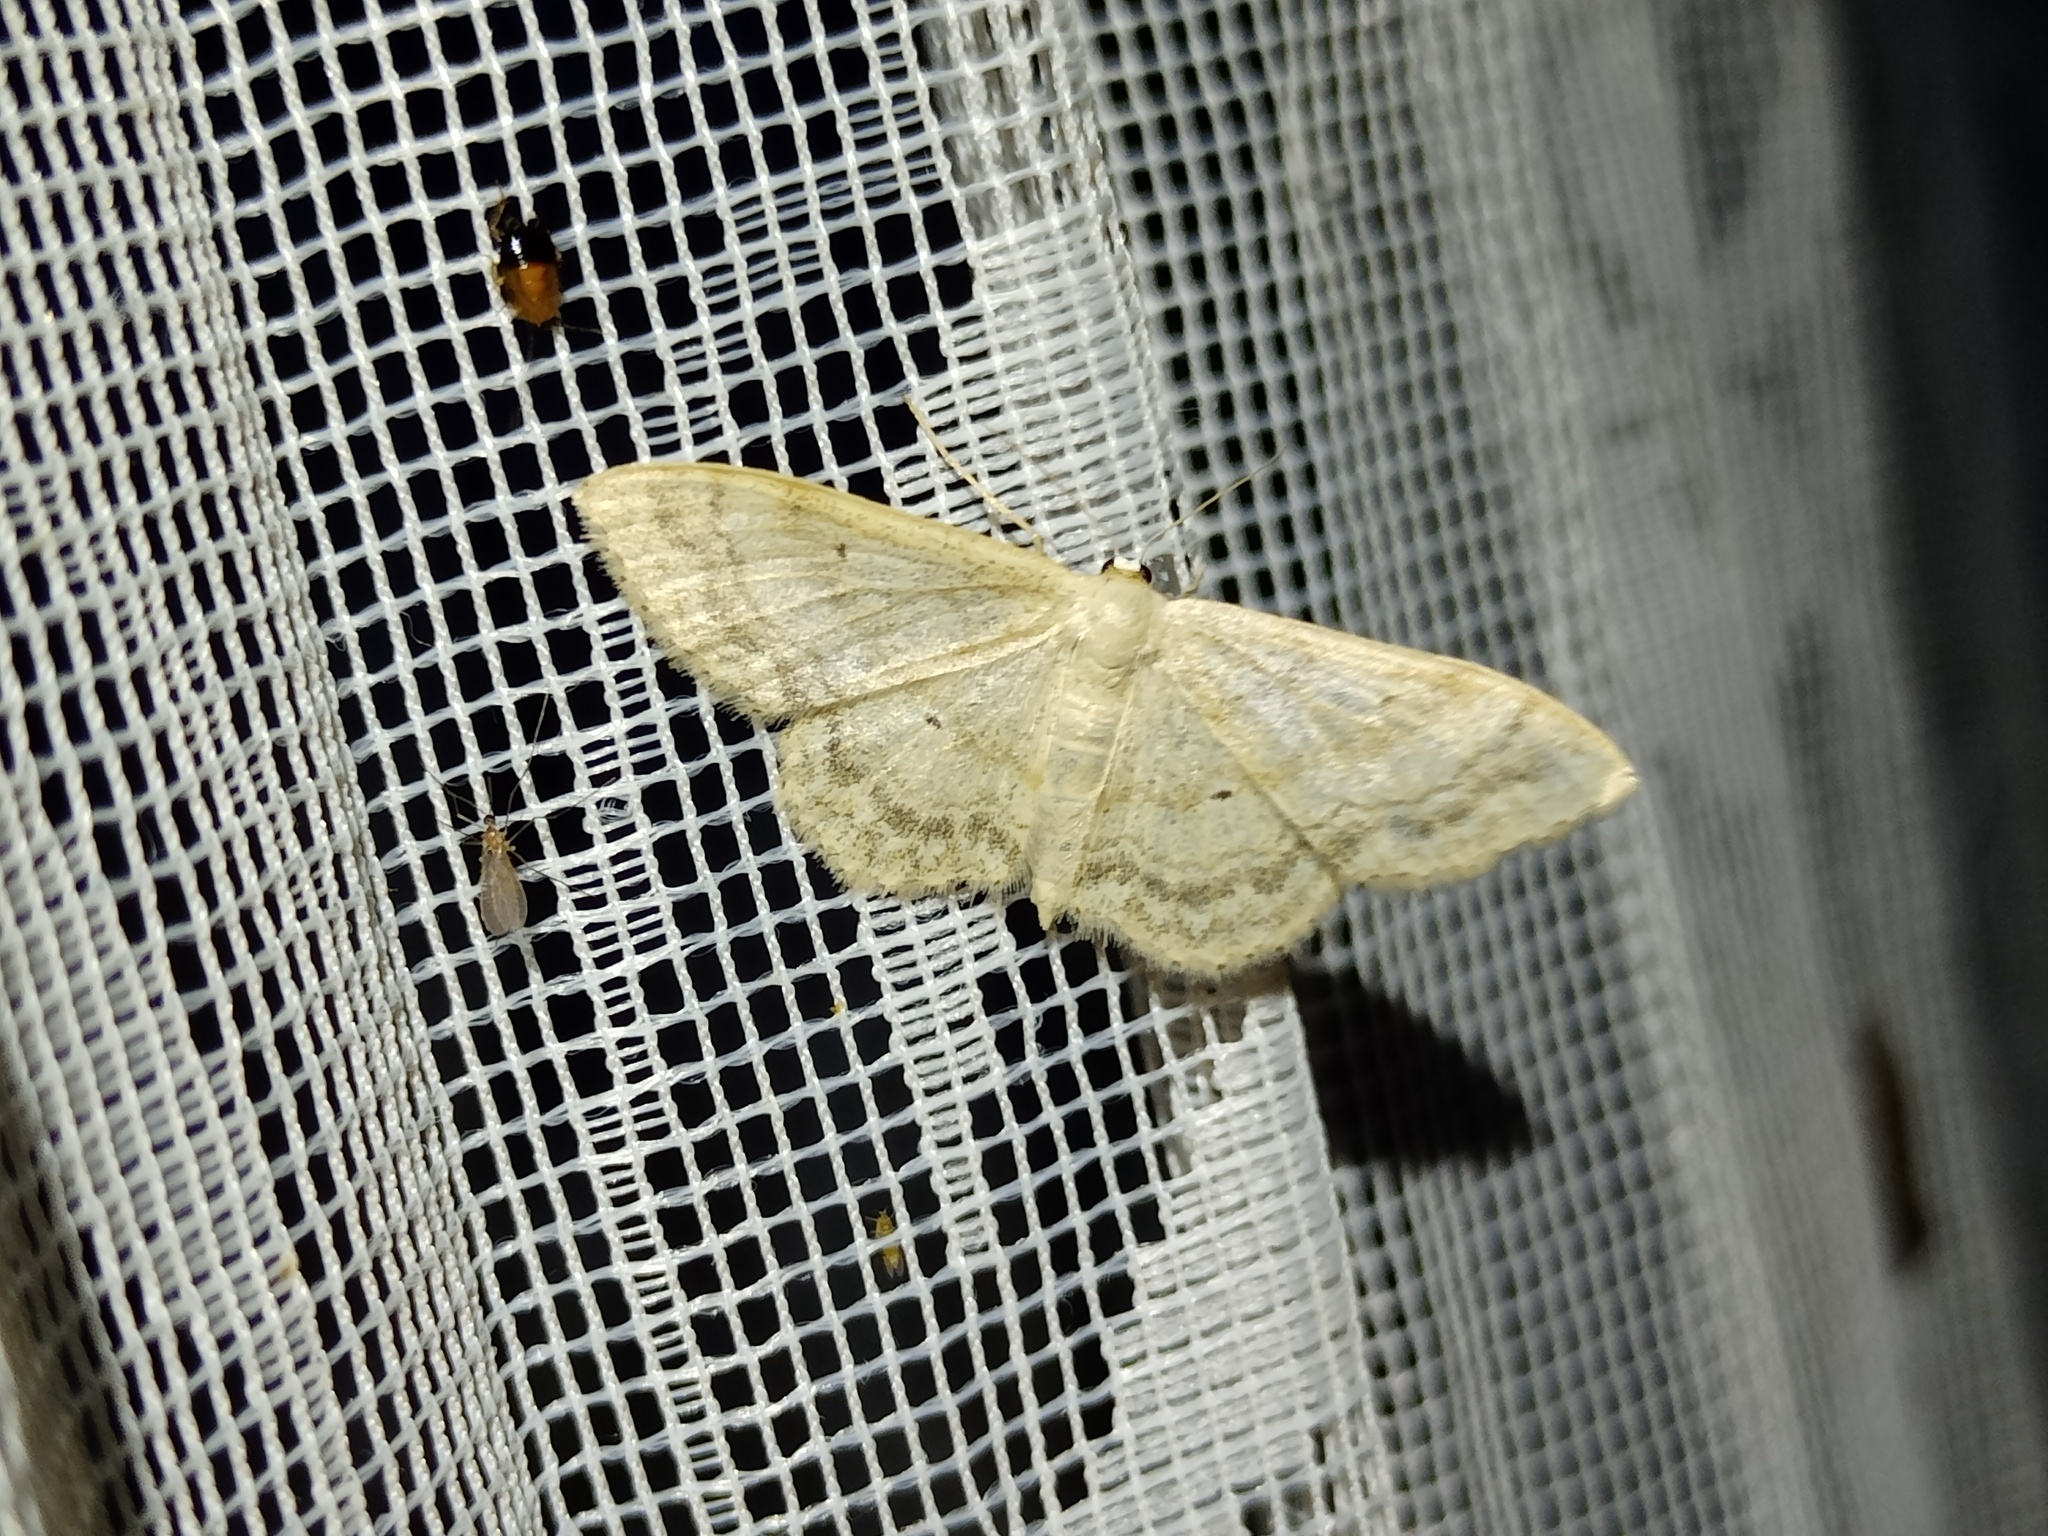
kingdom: Animalia
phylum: Arthropoda
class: Insecta
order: Lepidoptera
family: Geometridae
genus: Idaea
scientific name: Idaea maritimaria
